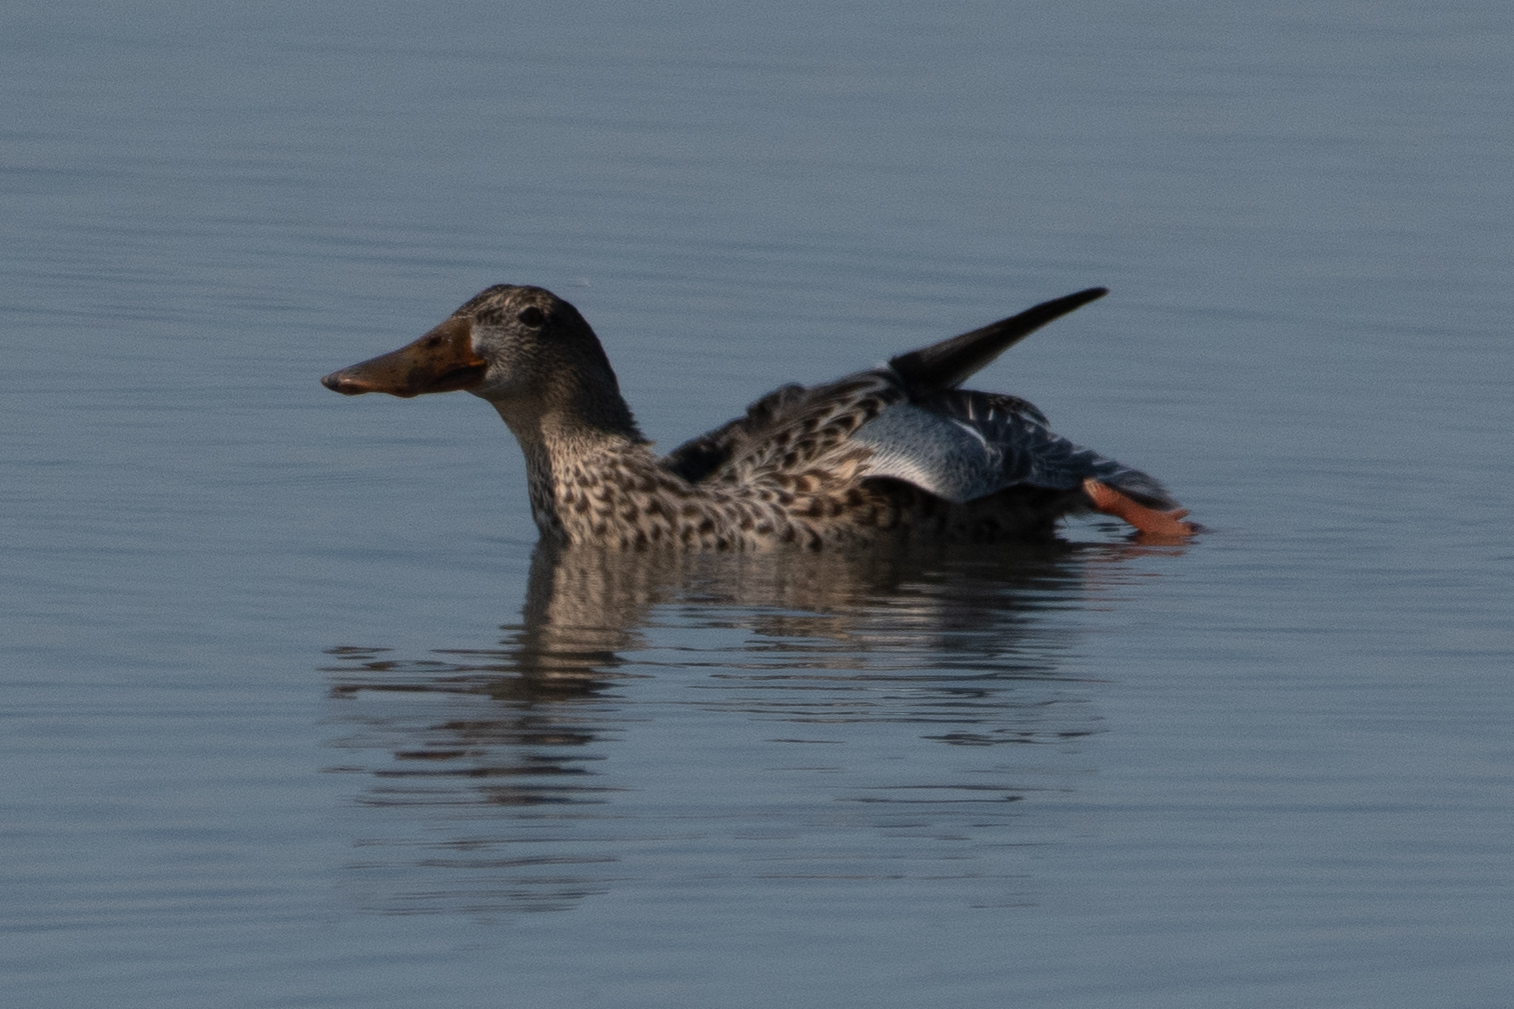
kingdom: Animalia
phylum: Chordata
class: Aves
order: Anseriformes
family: Anatidae
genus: Spatula
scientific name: Spatula clypeata
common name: Northern shoveler
